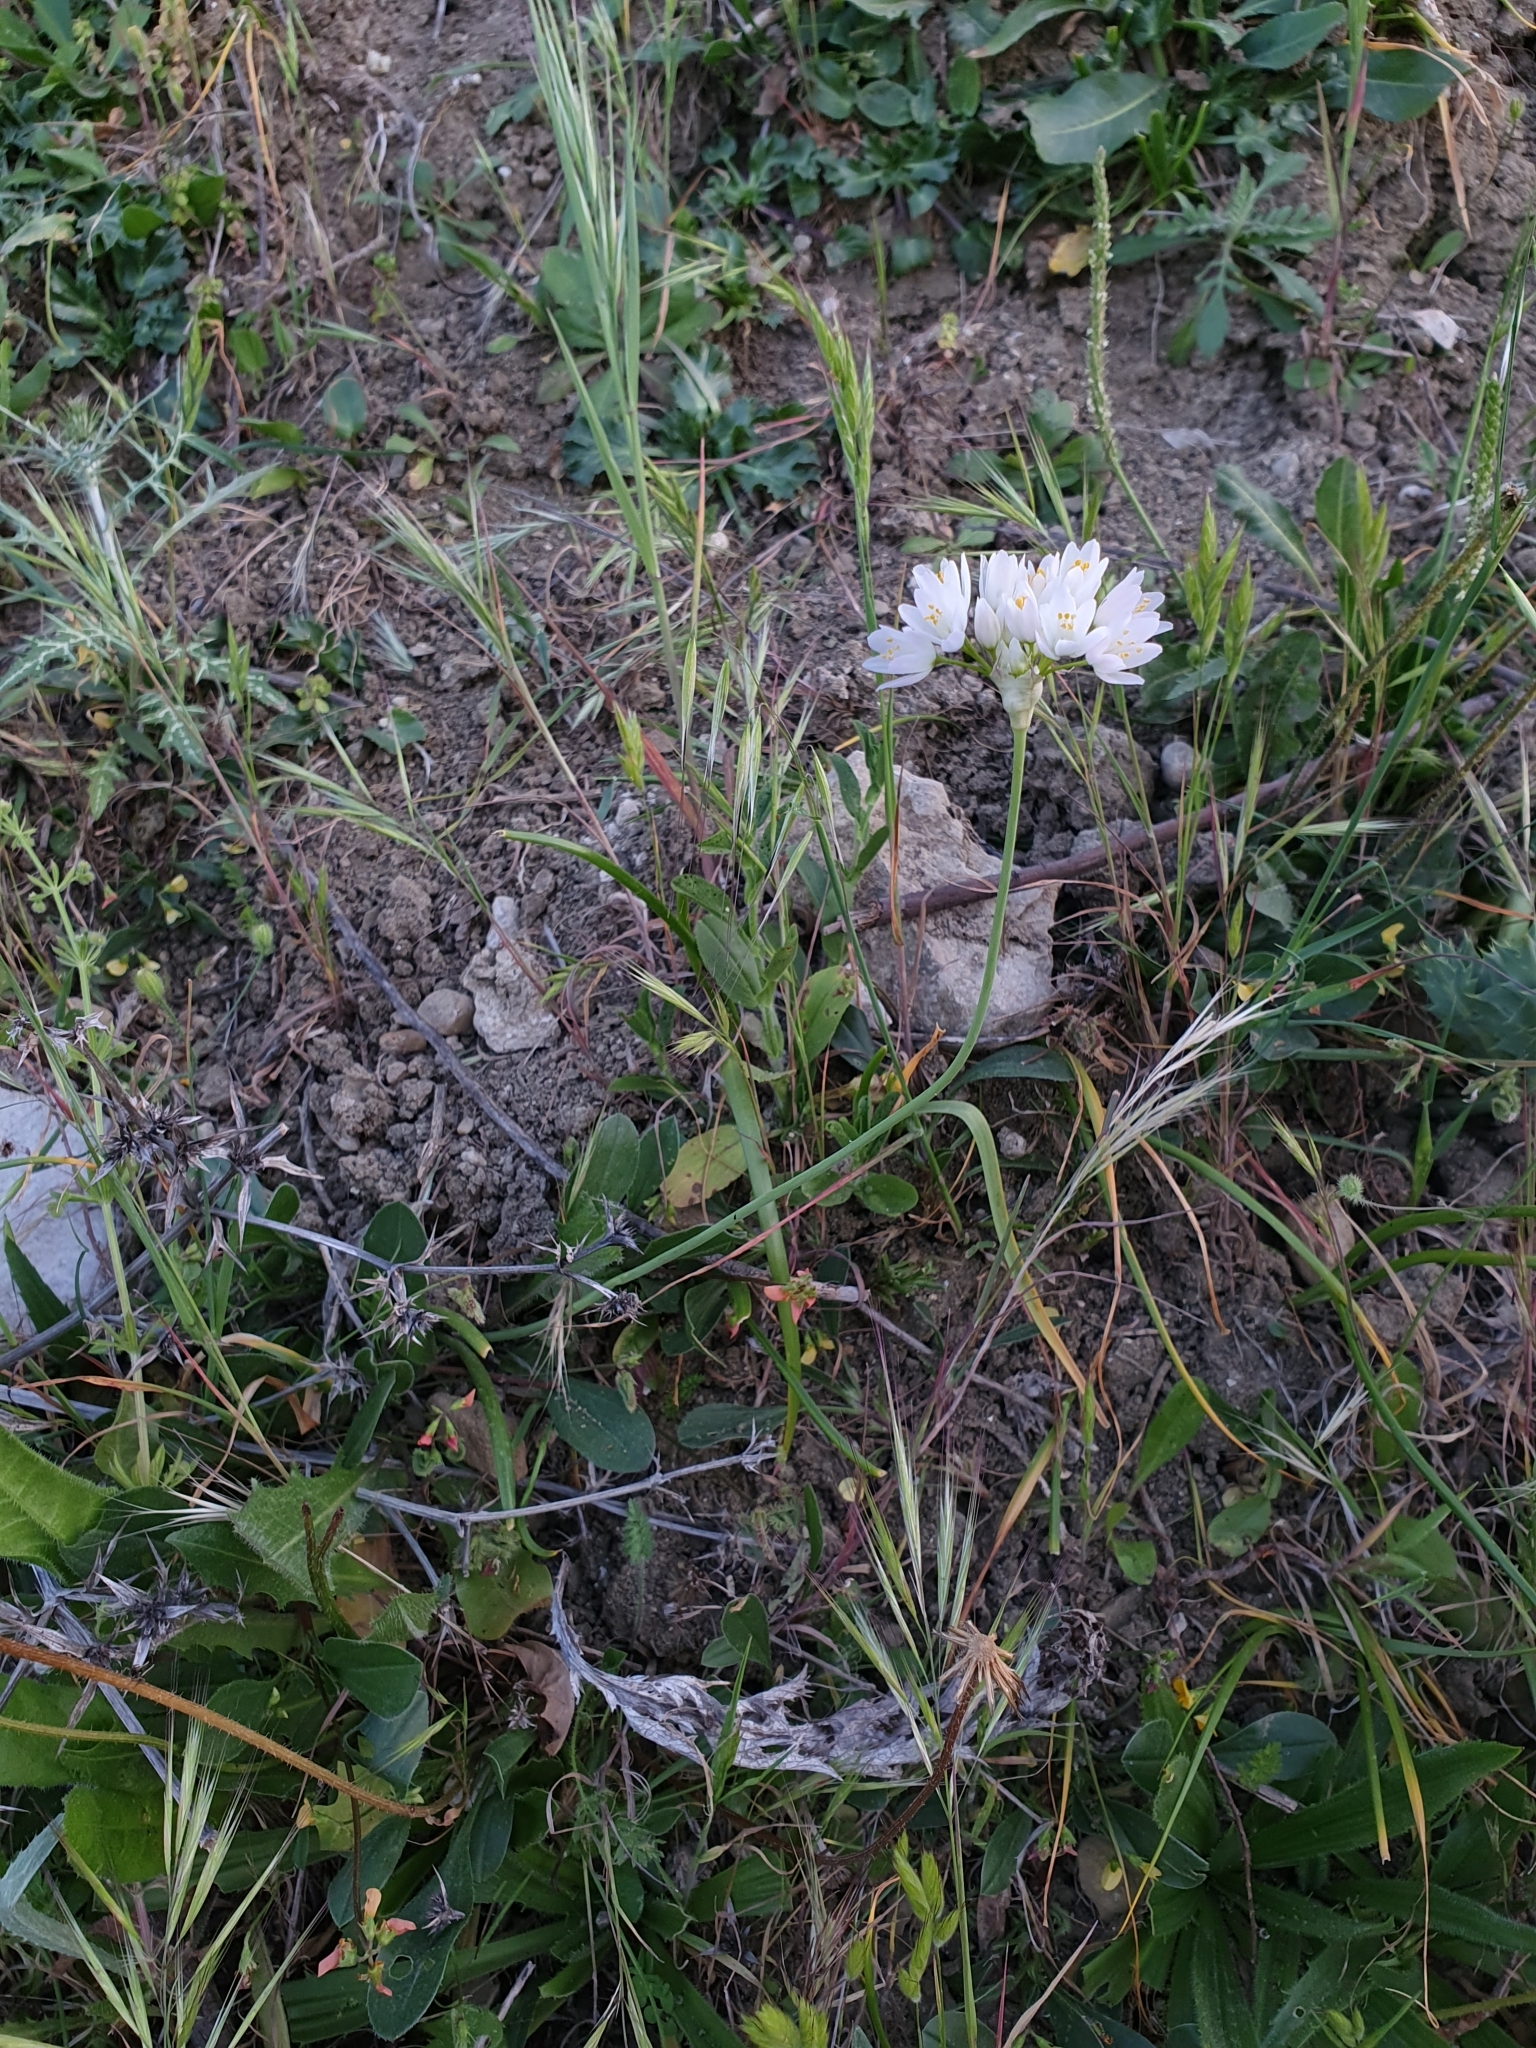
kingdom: Plantae
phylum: Tracheophyta
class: Liliopsida
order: Asparagales
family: Amaryllidaceae
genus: Allium
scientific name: Allium roseum
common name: Rosy garlic
